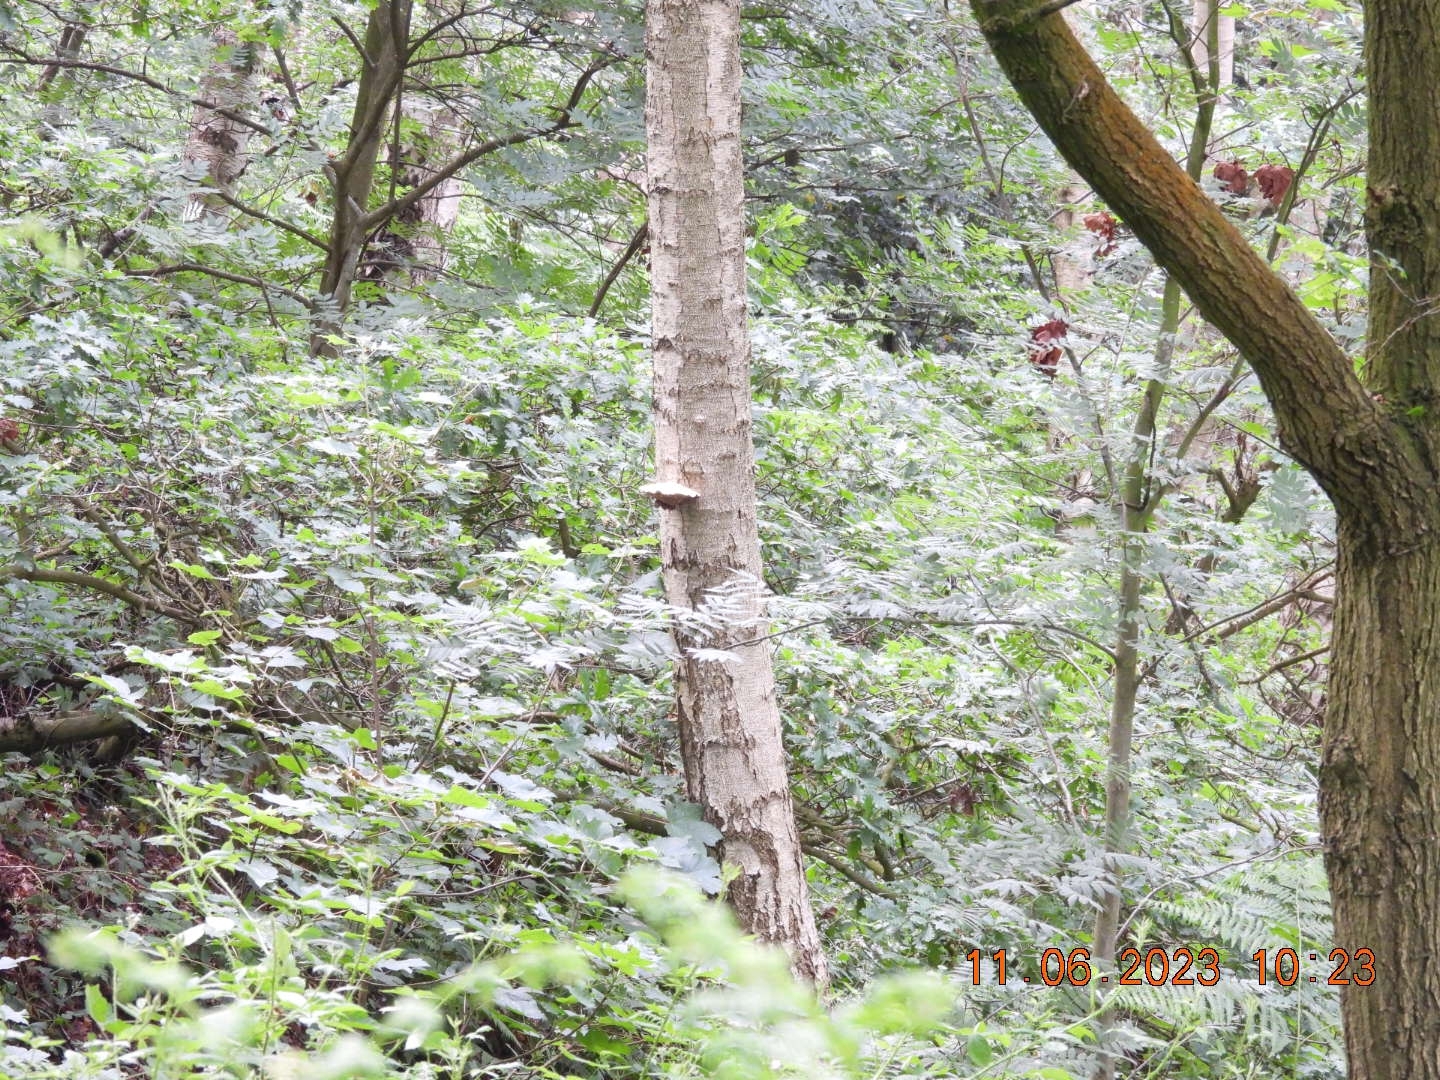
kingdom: Fungi
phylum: Basidiomycota
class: Agaricomycetes
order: Polyporales
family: Fomitopsidaceae
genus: Fomitopsis
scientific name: Fomitopsis betulina
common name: Birch polypore
